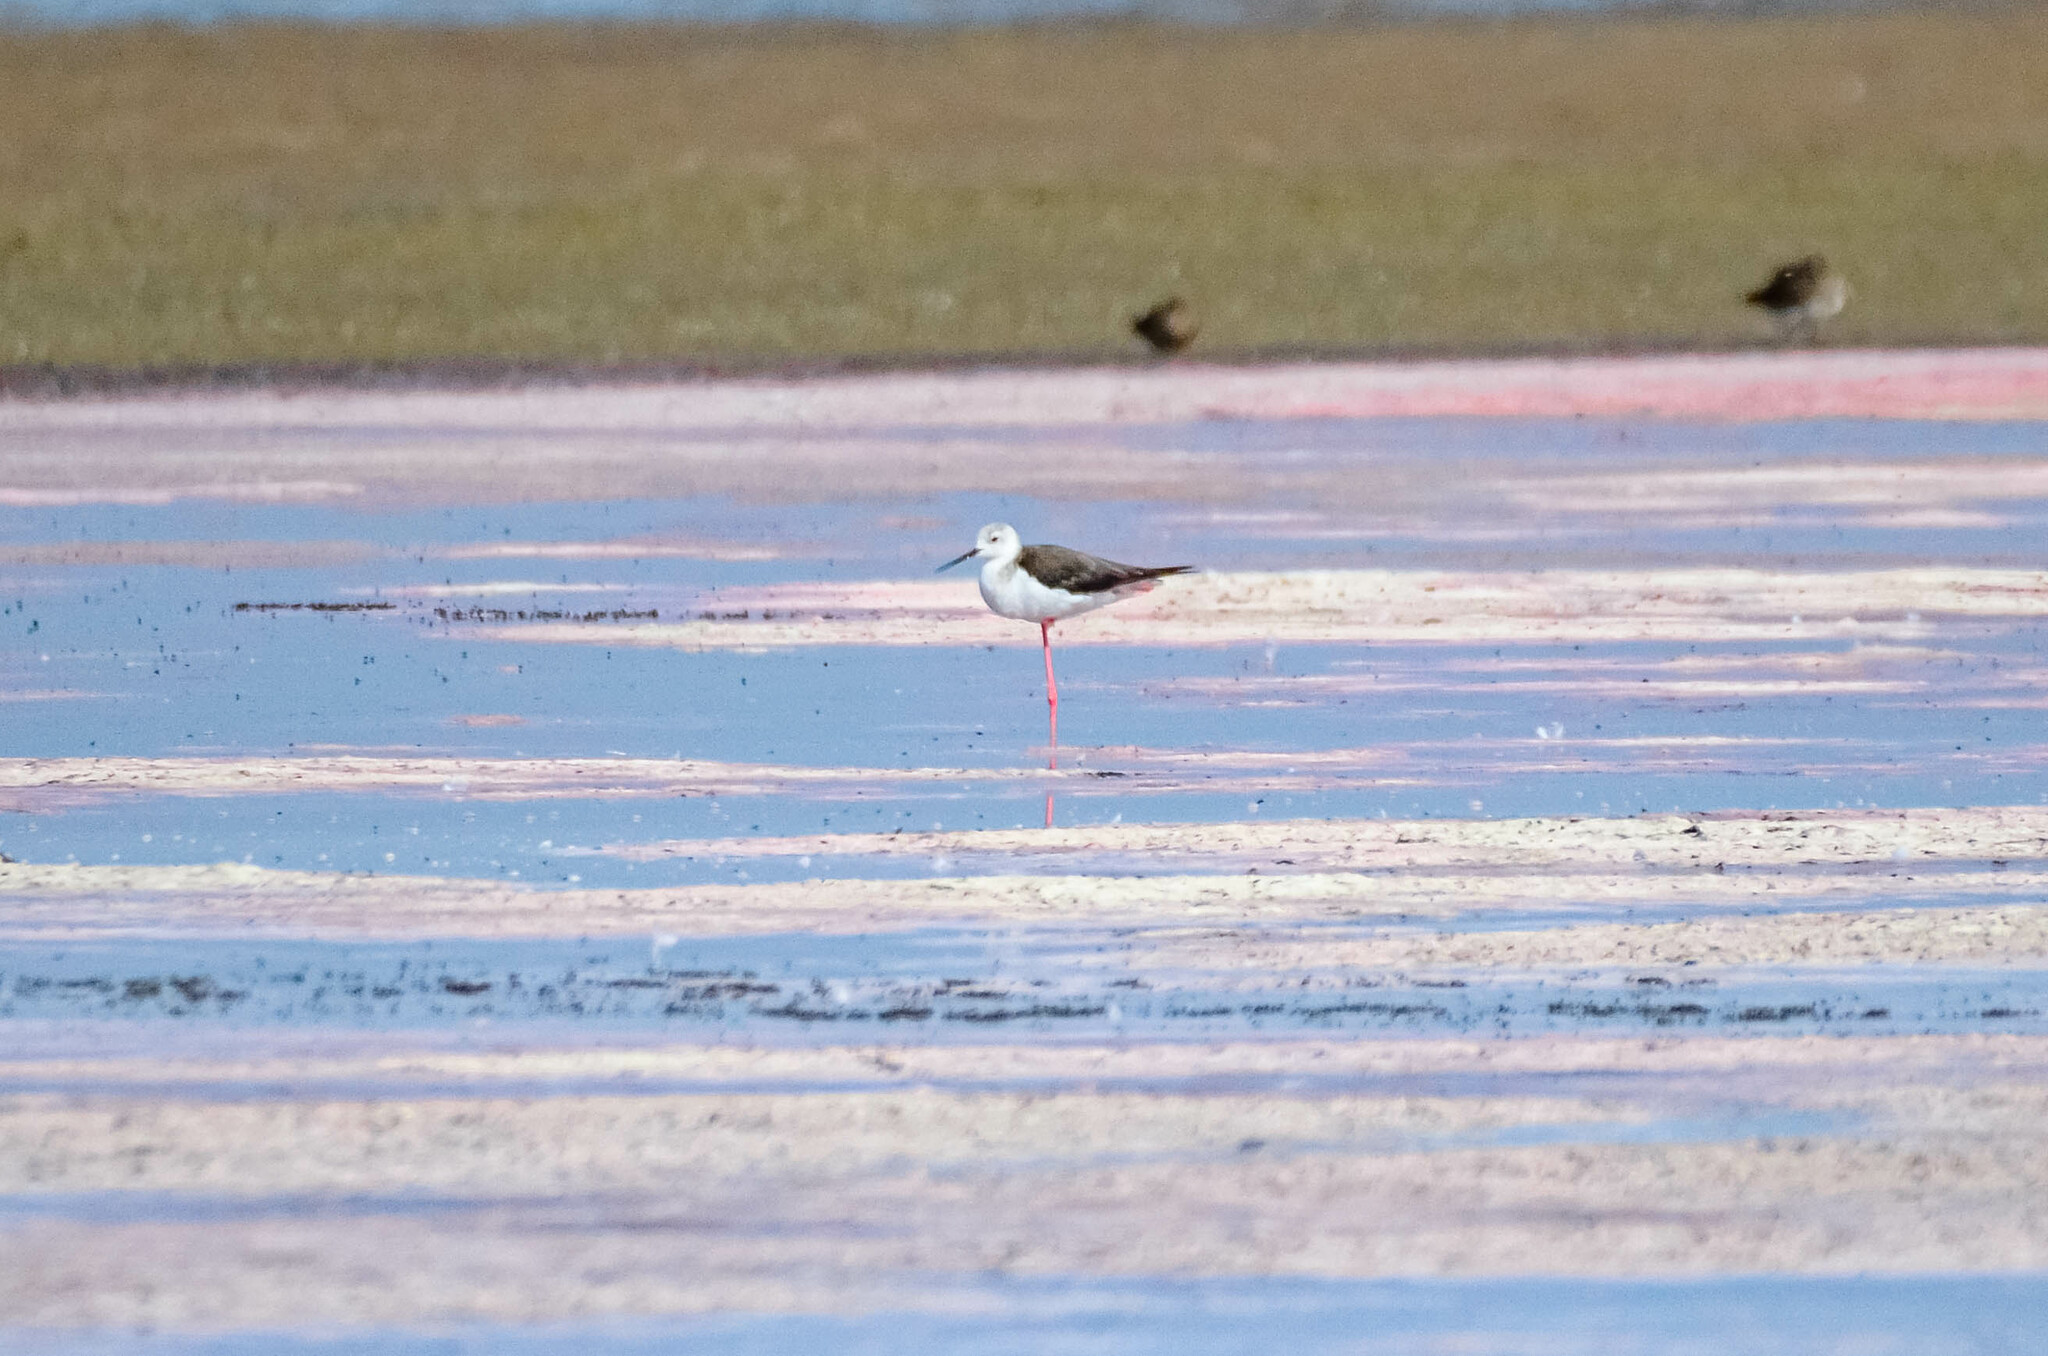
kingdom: Animalia
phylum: Chordata
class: Aves
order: Charadriiformes
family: Recurvirostridae
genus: Himantopus
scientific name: Himantopus himantopus
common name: Black-winged stilt
